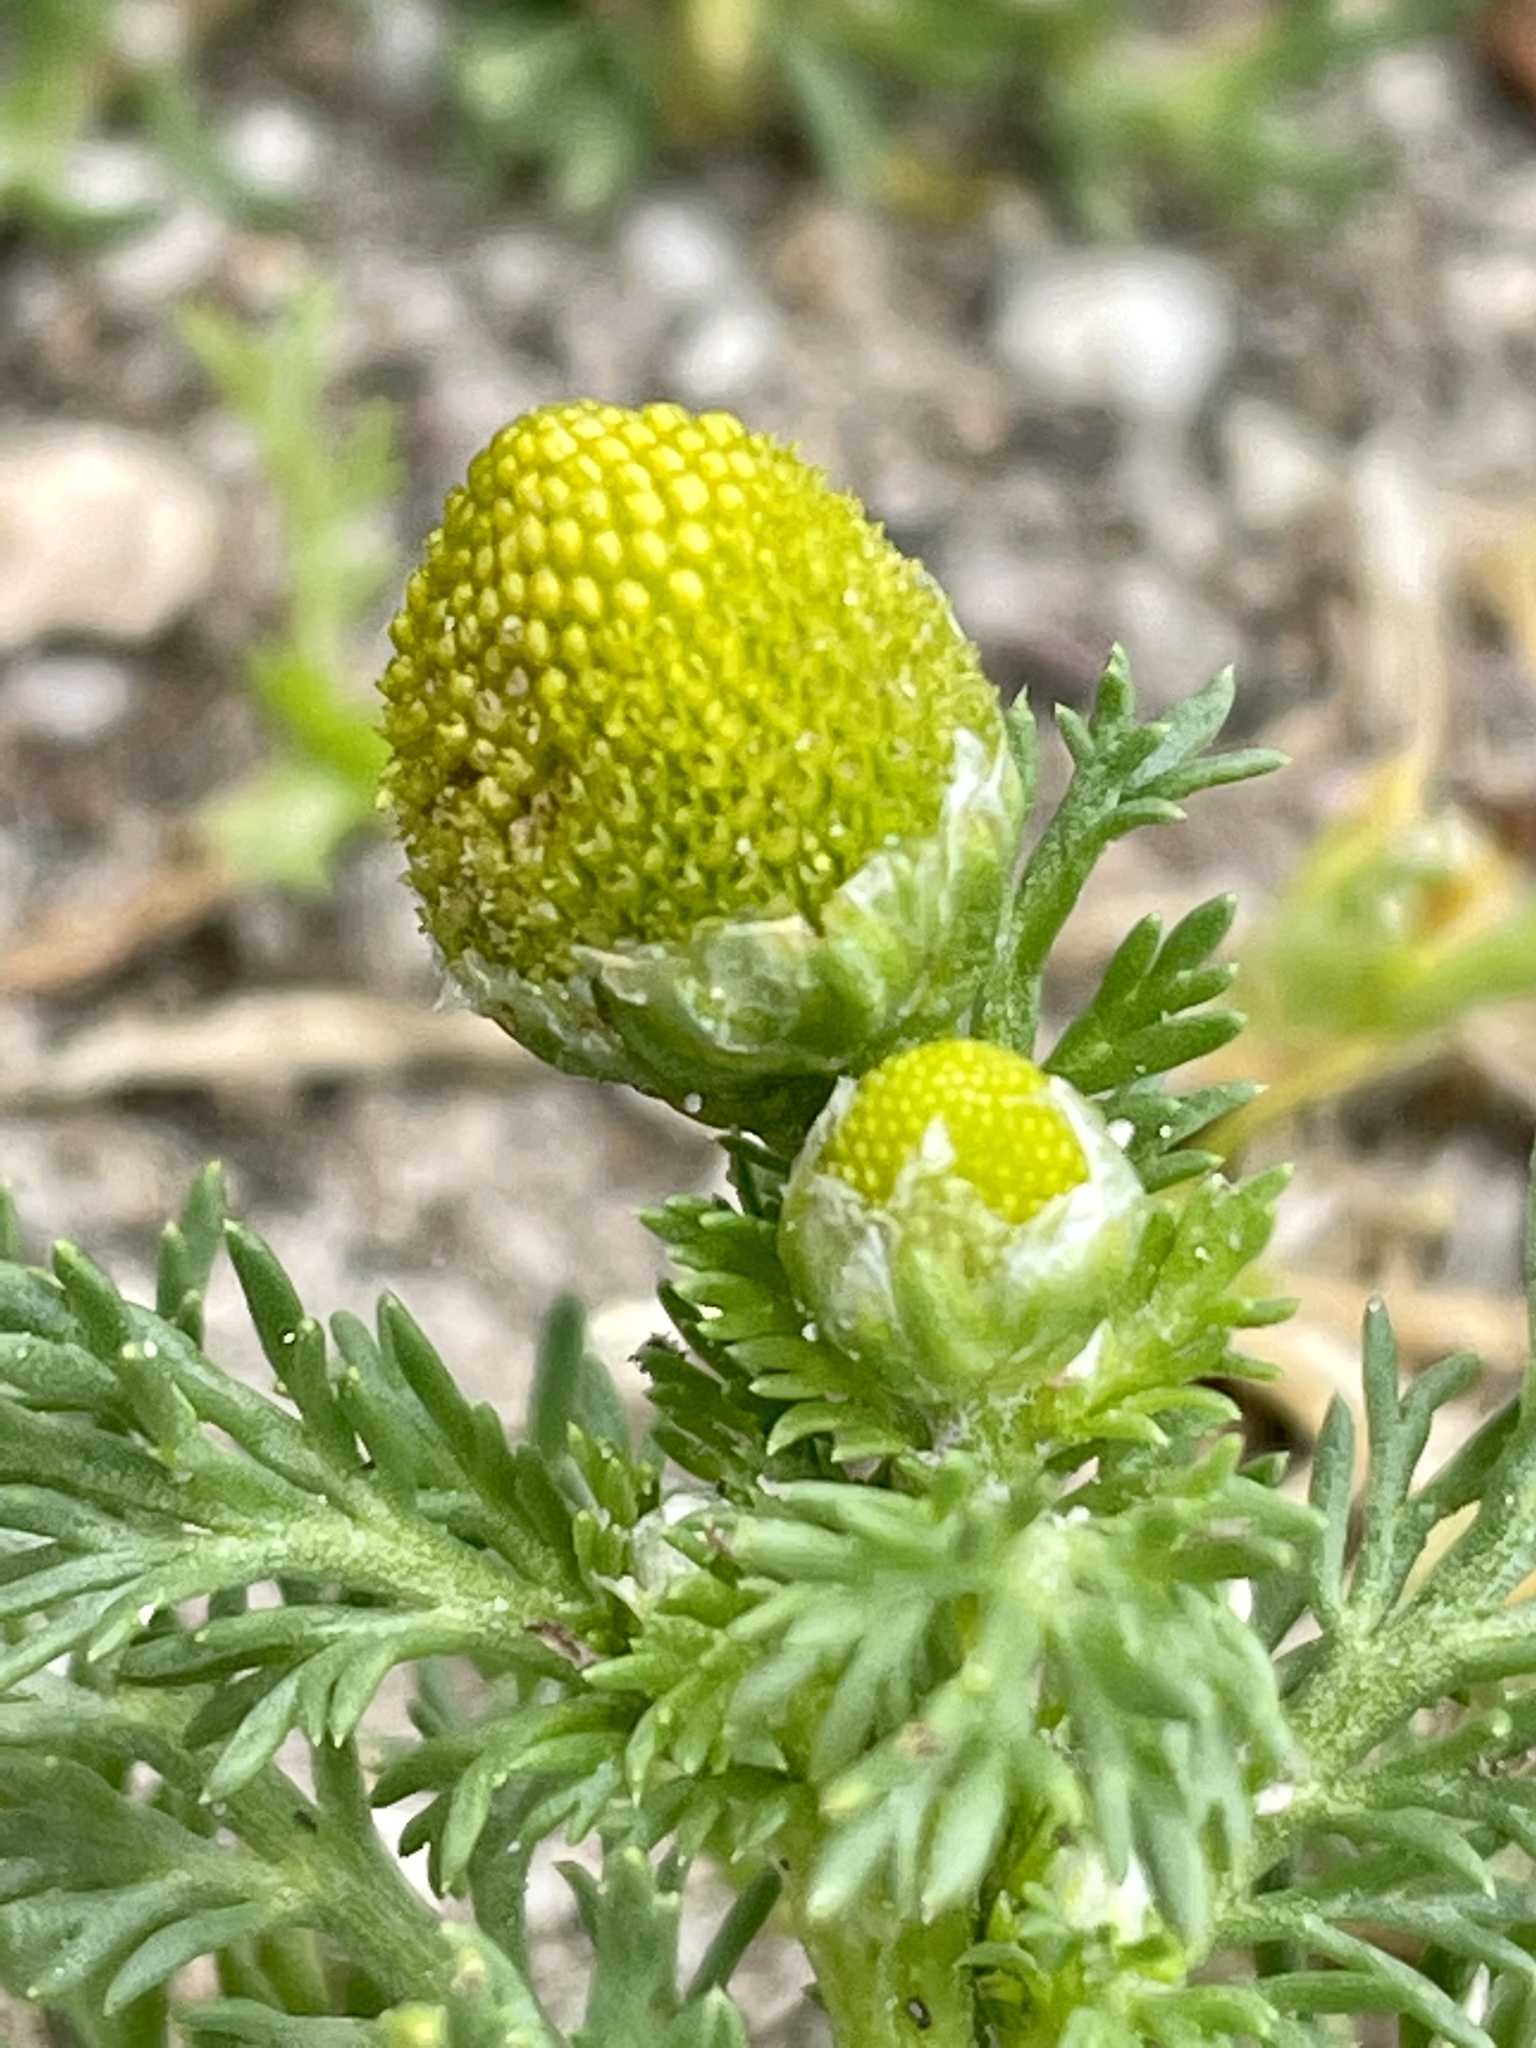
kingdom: Plantae
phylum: Tracheophyta
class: Magnoliopsida
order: Asterales
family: Asteraceae
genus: Matricaria
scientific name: Matricaria discoidea
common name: Disc mayweed
